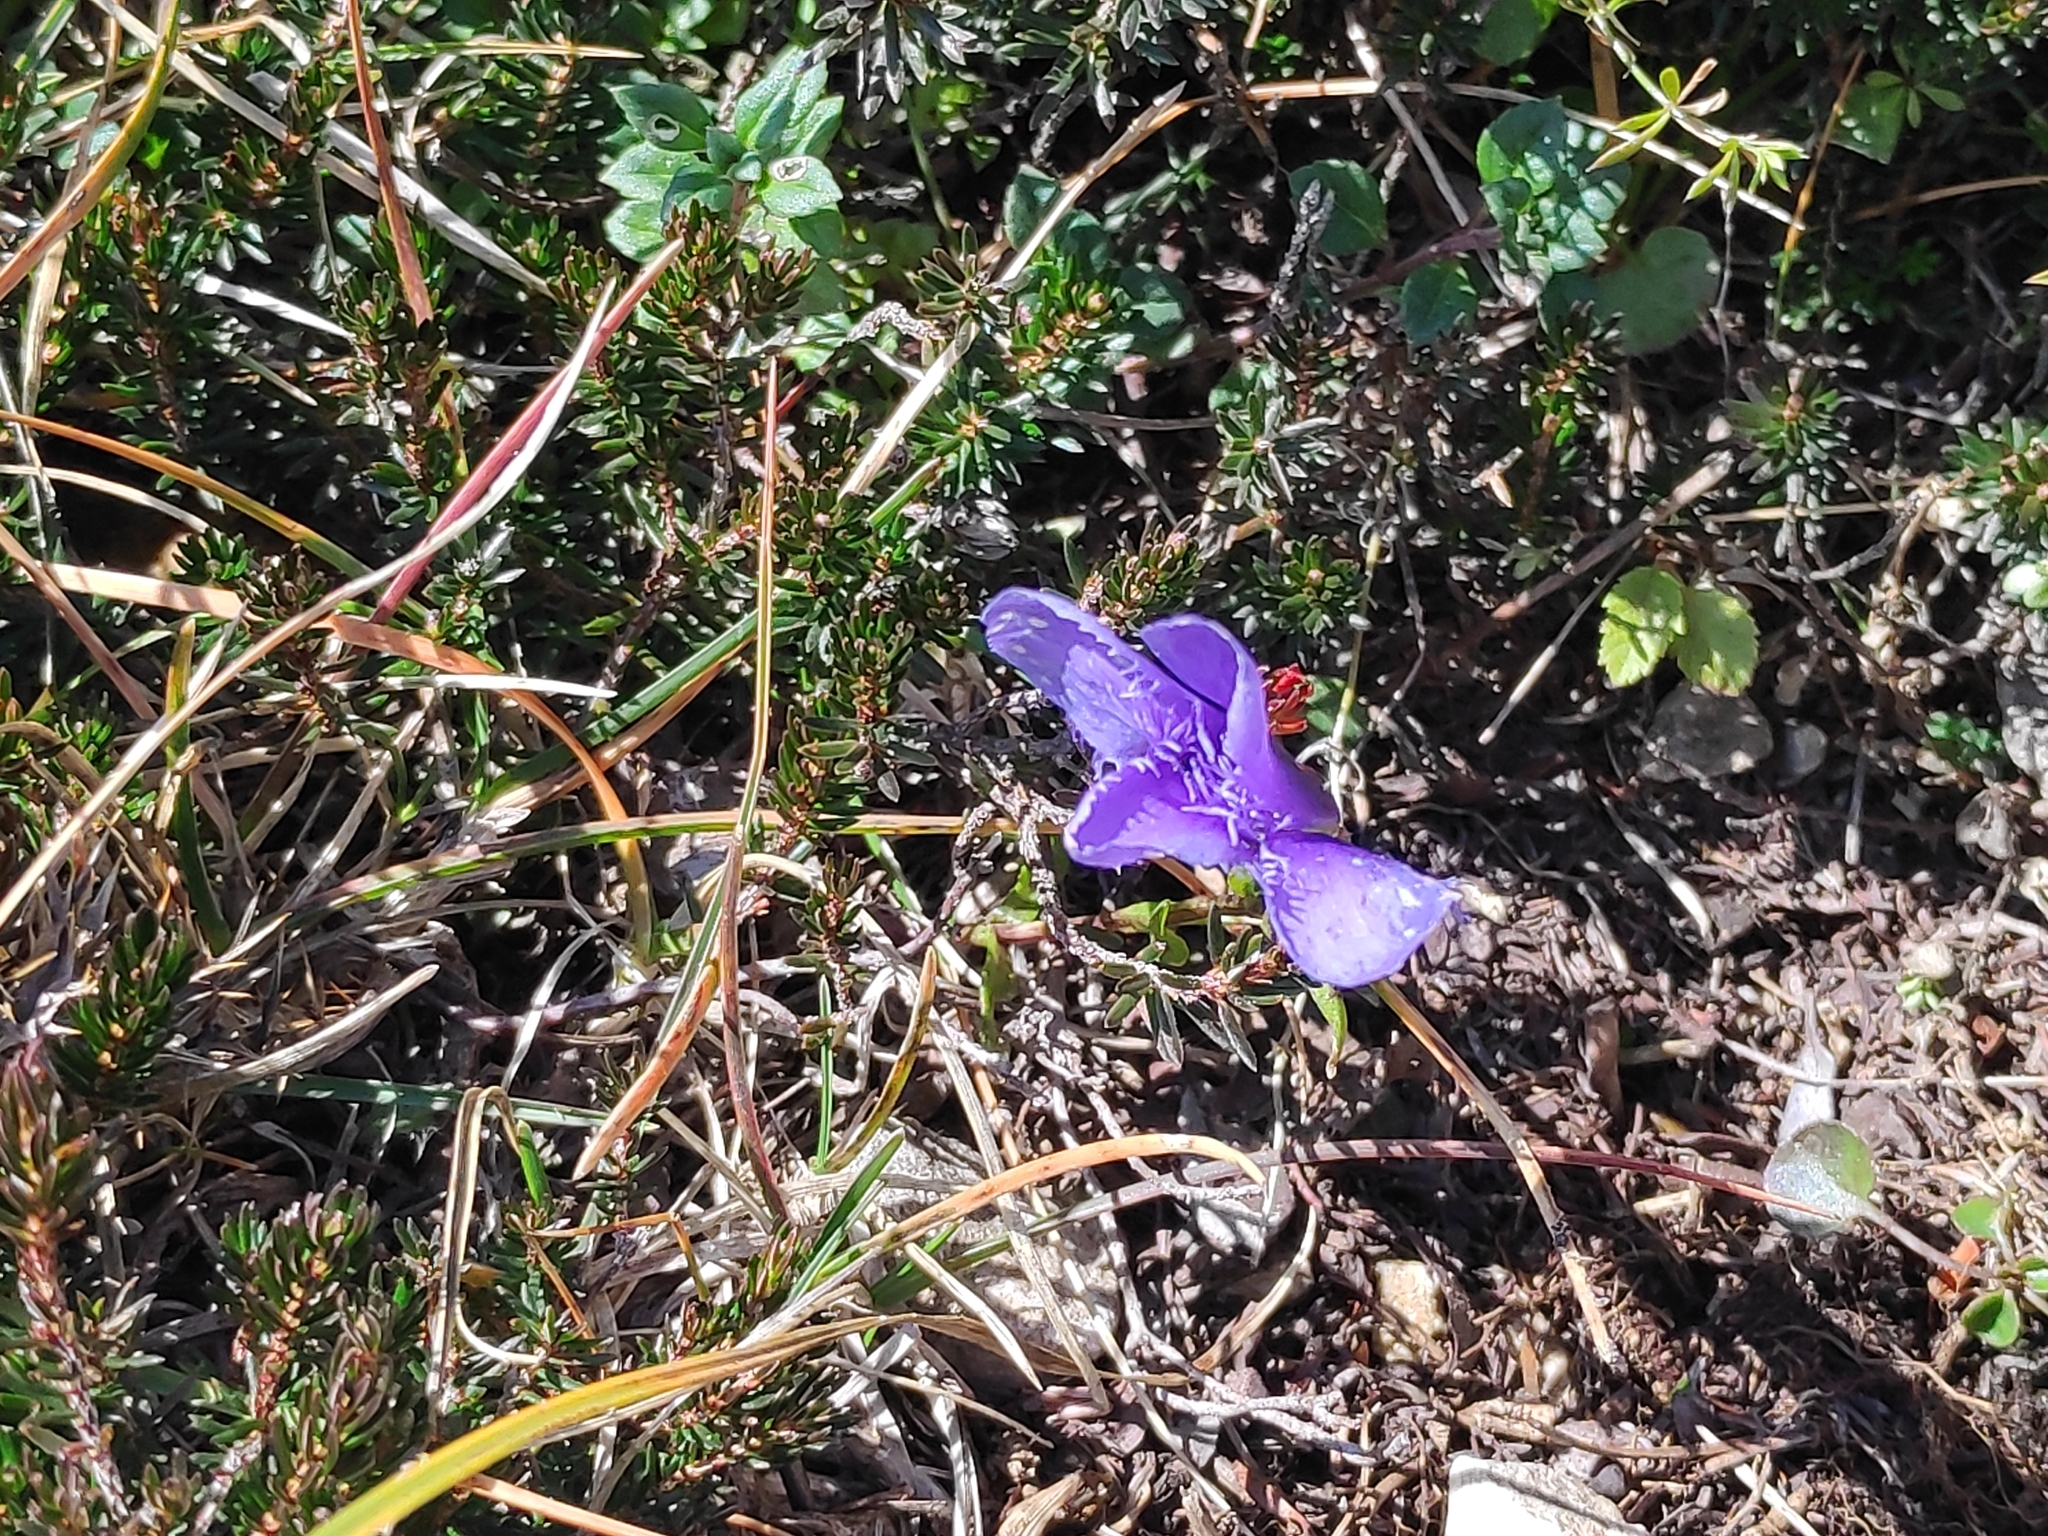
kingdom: Plantae
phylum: Tracheophyta
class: Magnoliopsida
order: Gentianales
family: Gentianaceae
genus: Gentianopsis
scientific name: Gentianopsis ciliata
